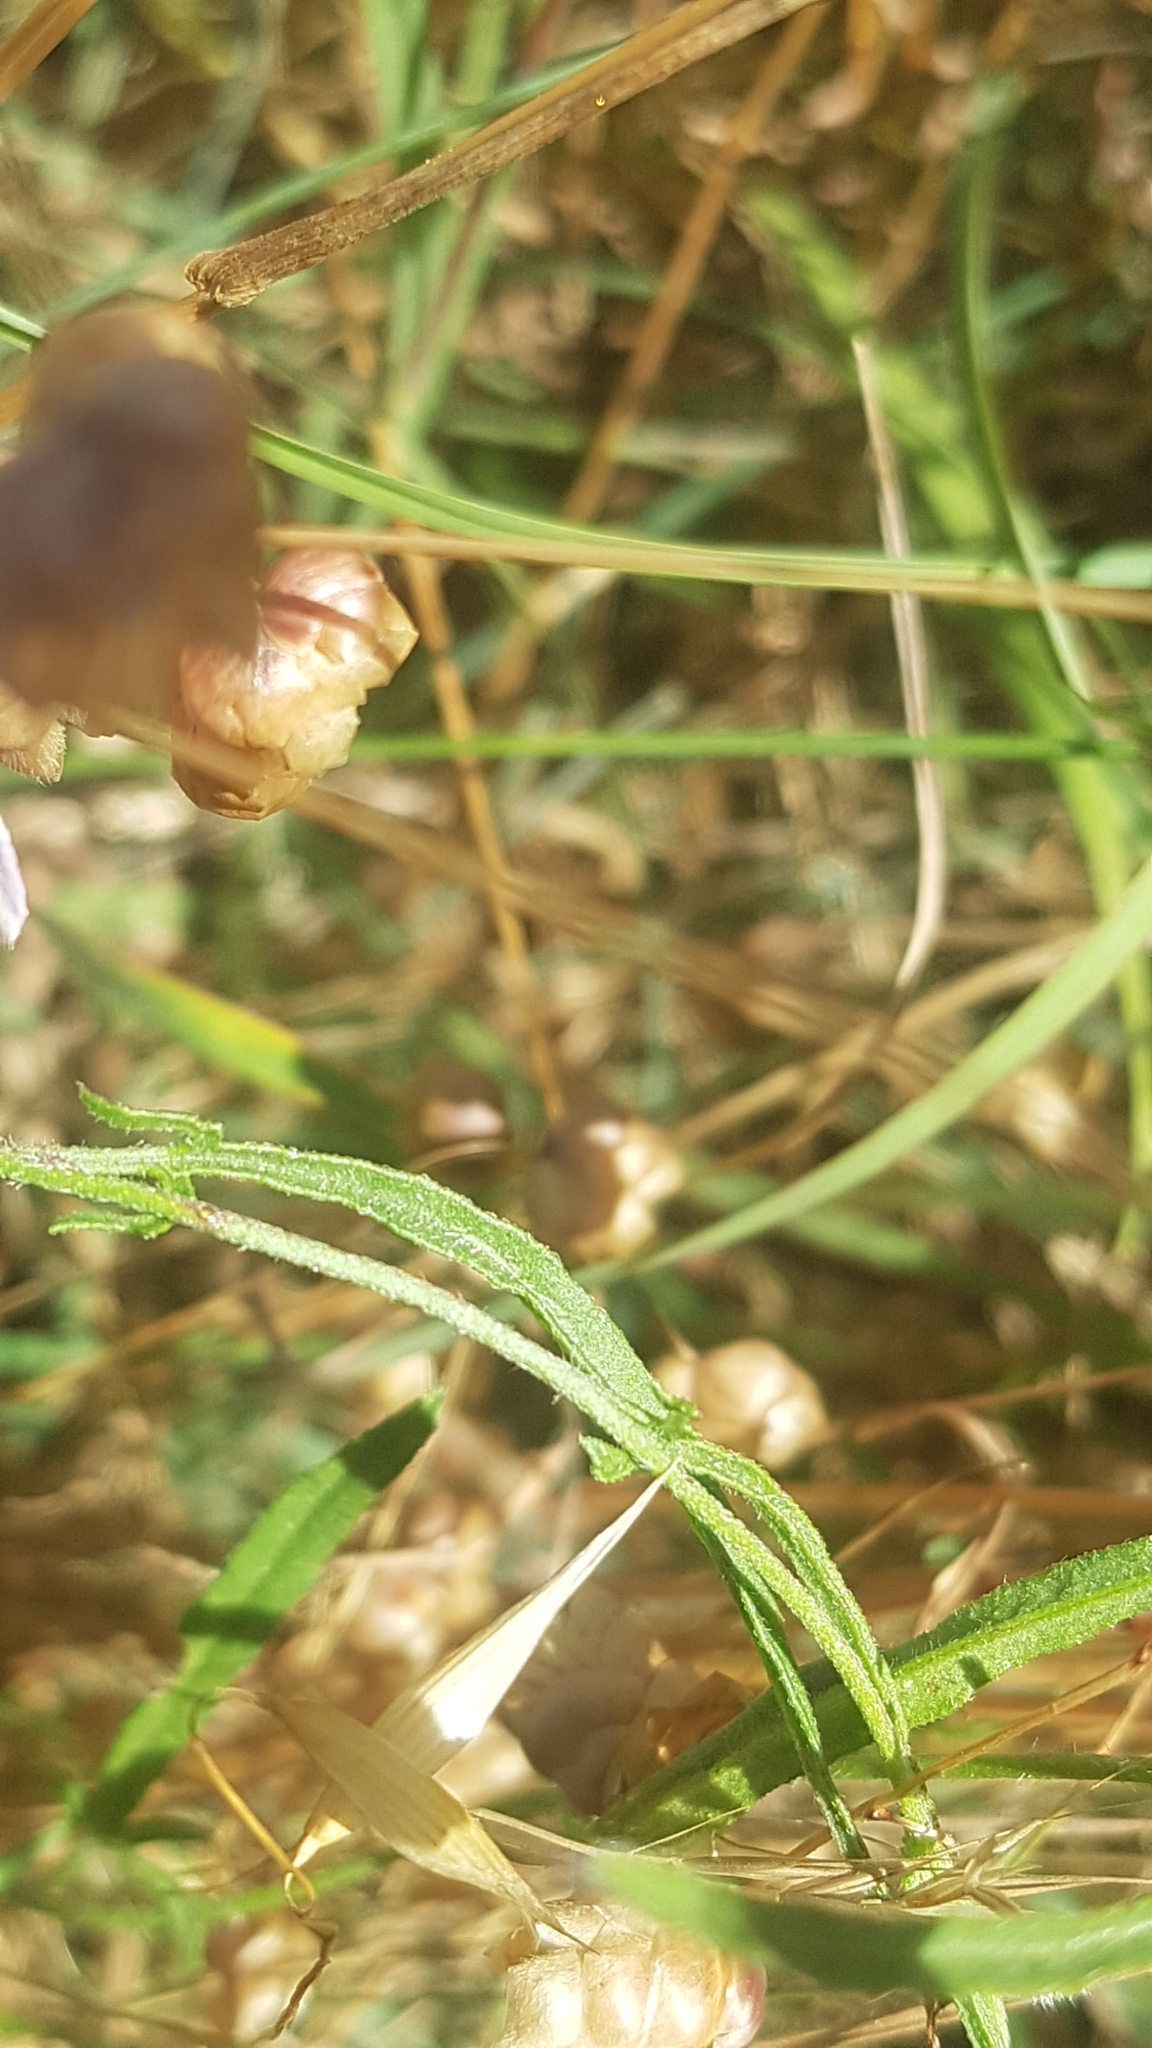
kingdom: Plantae
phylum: Tracheophyta
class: Magnoliopsida
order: Solanales
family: Convolvulaceae
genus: Convolvulus
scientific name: Convolvulus angustissimus
